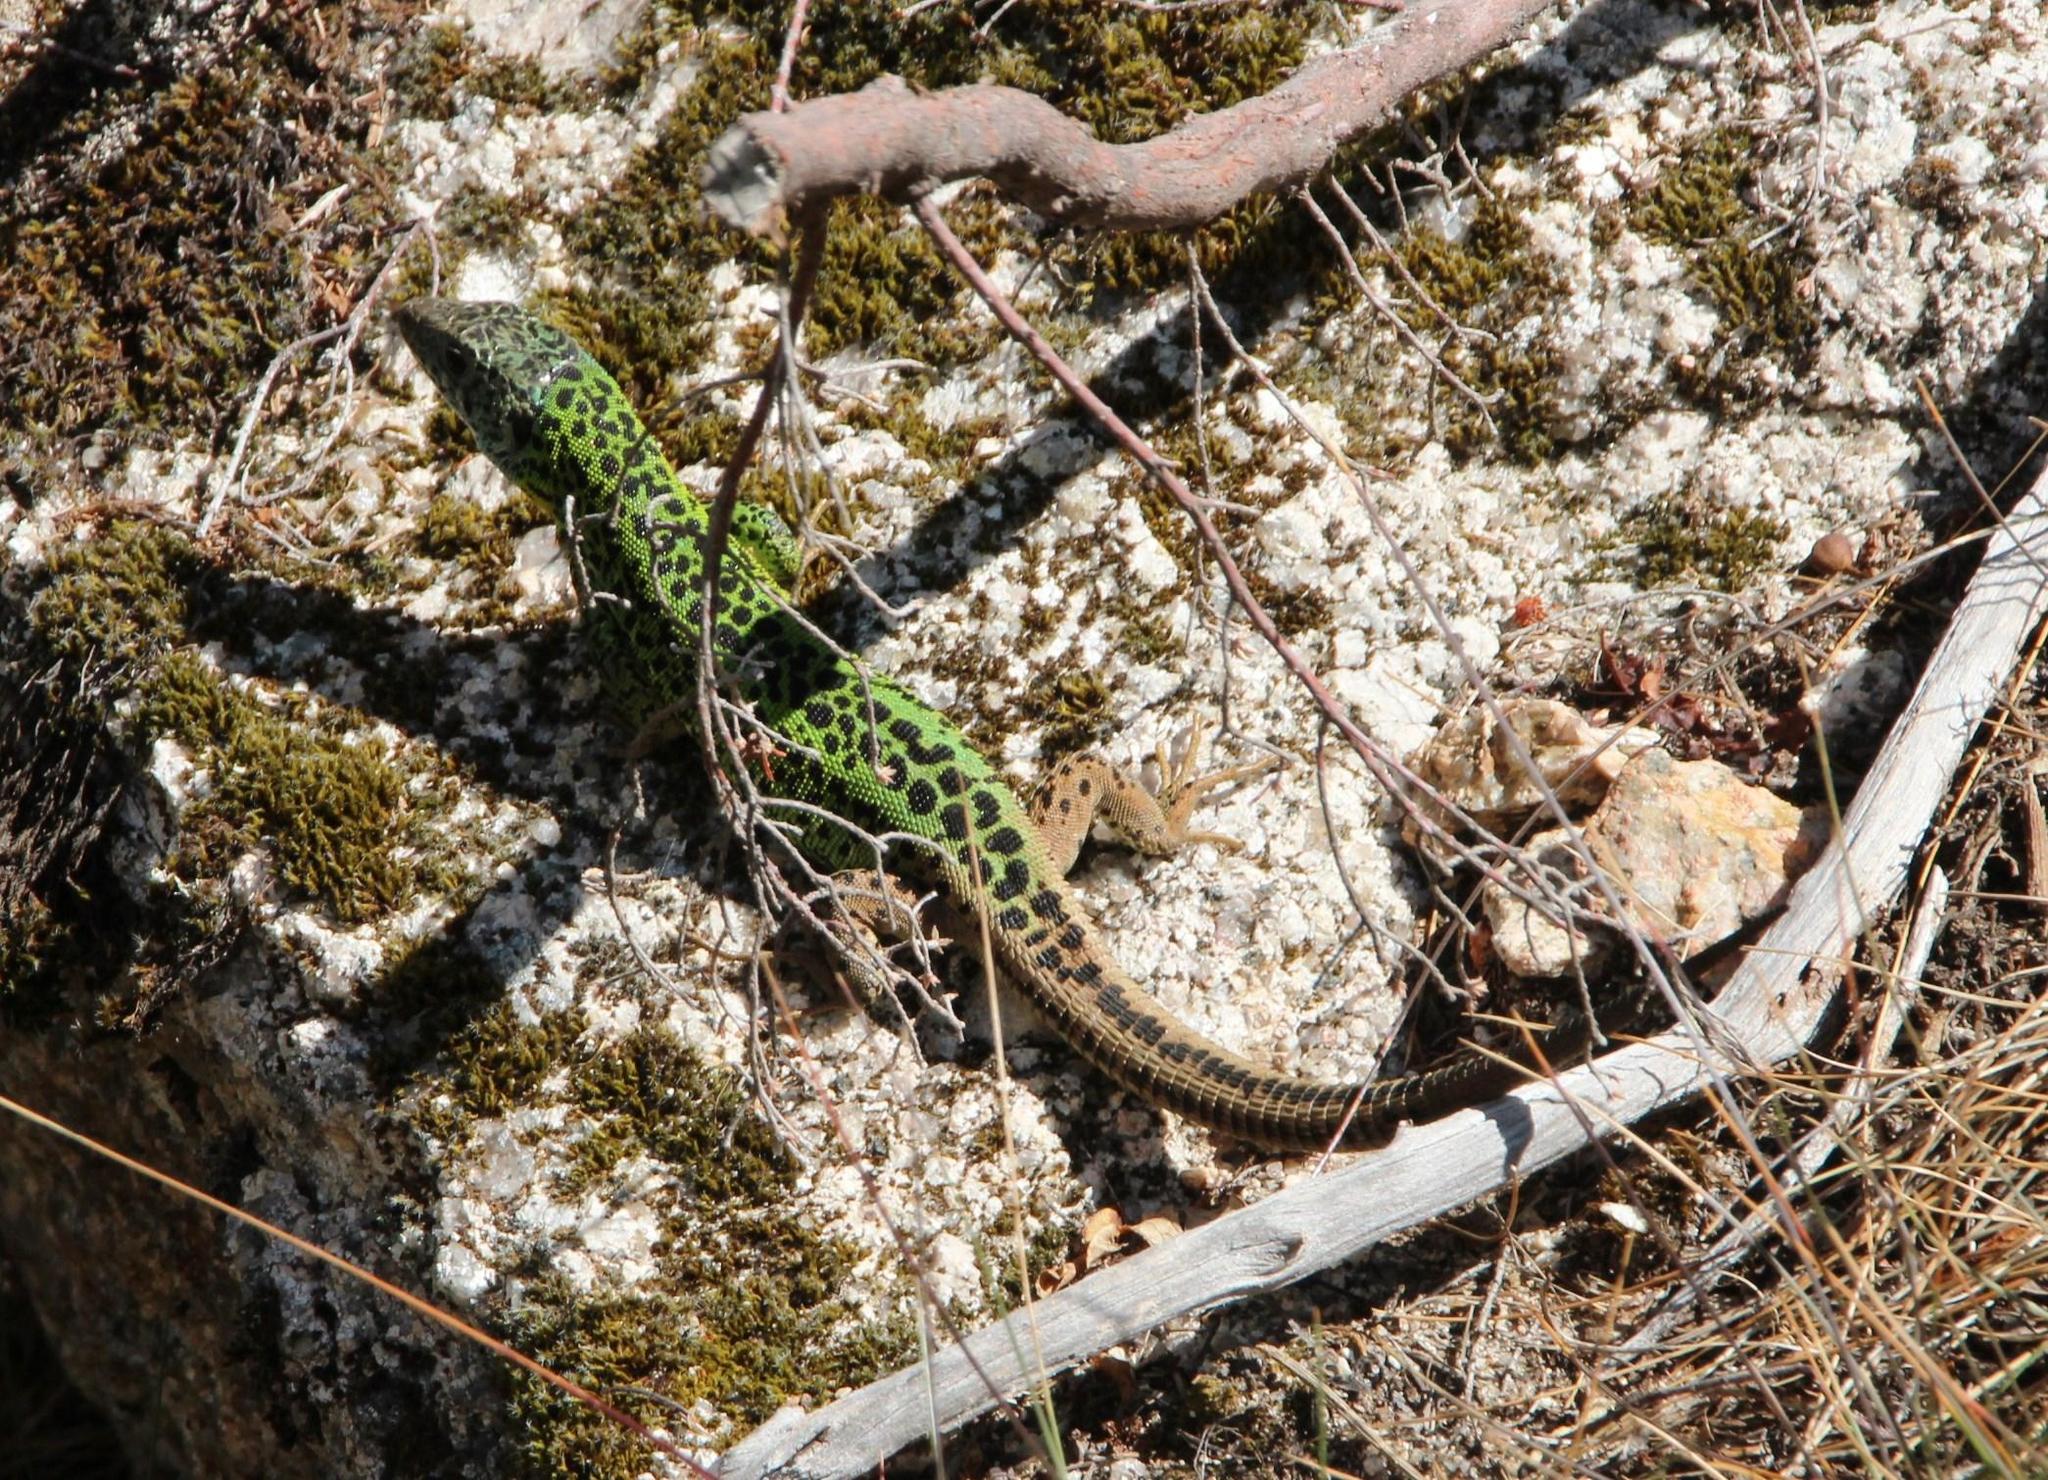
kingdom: Animalia
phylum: Chordata
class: Squamata
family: Lacertidae
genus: Lacerta
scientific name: Lacerta schreiberi
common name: Iberian emerald lizard
